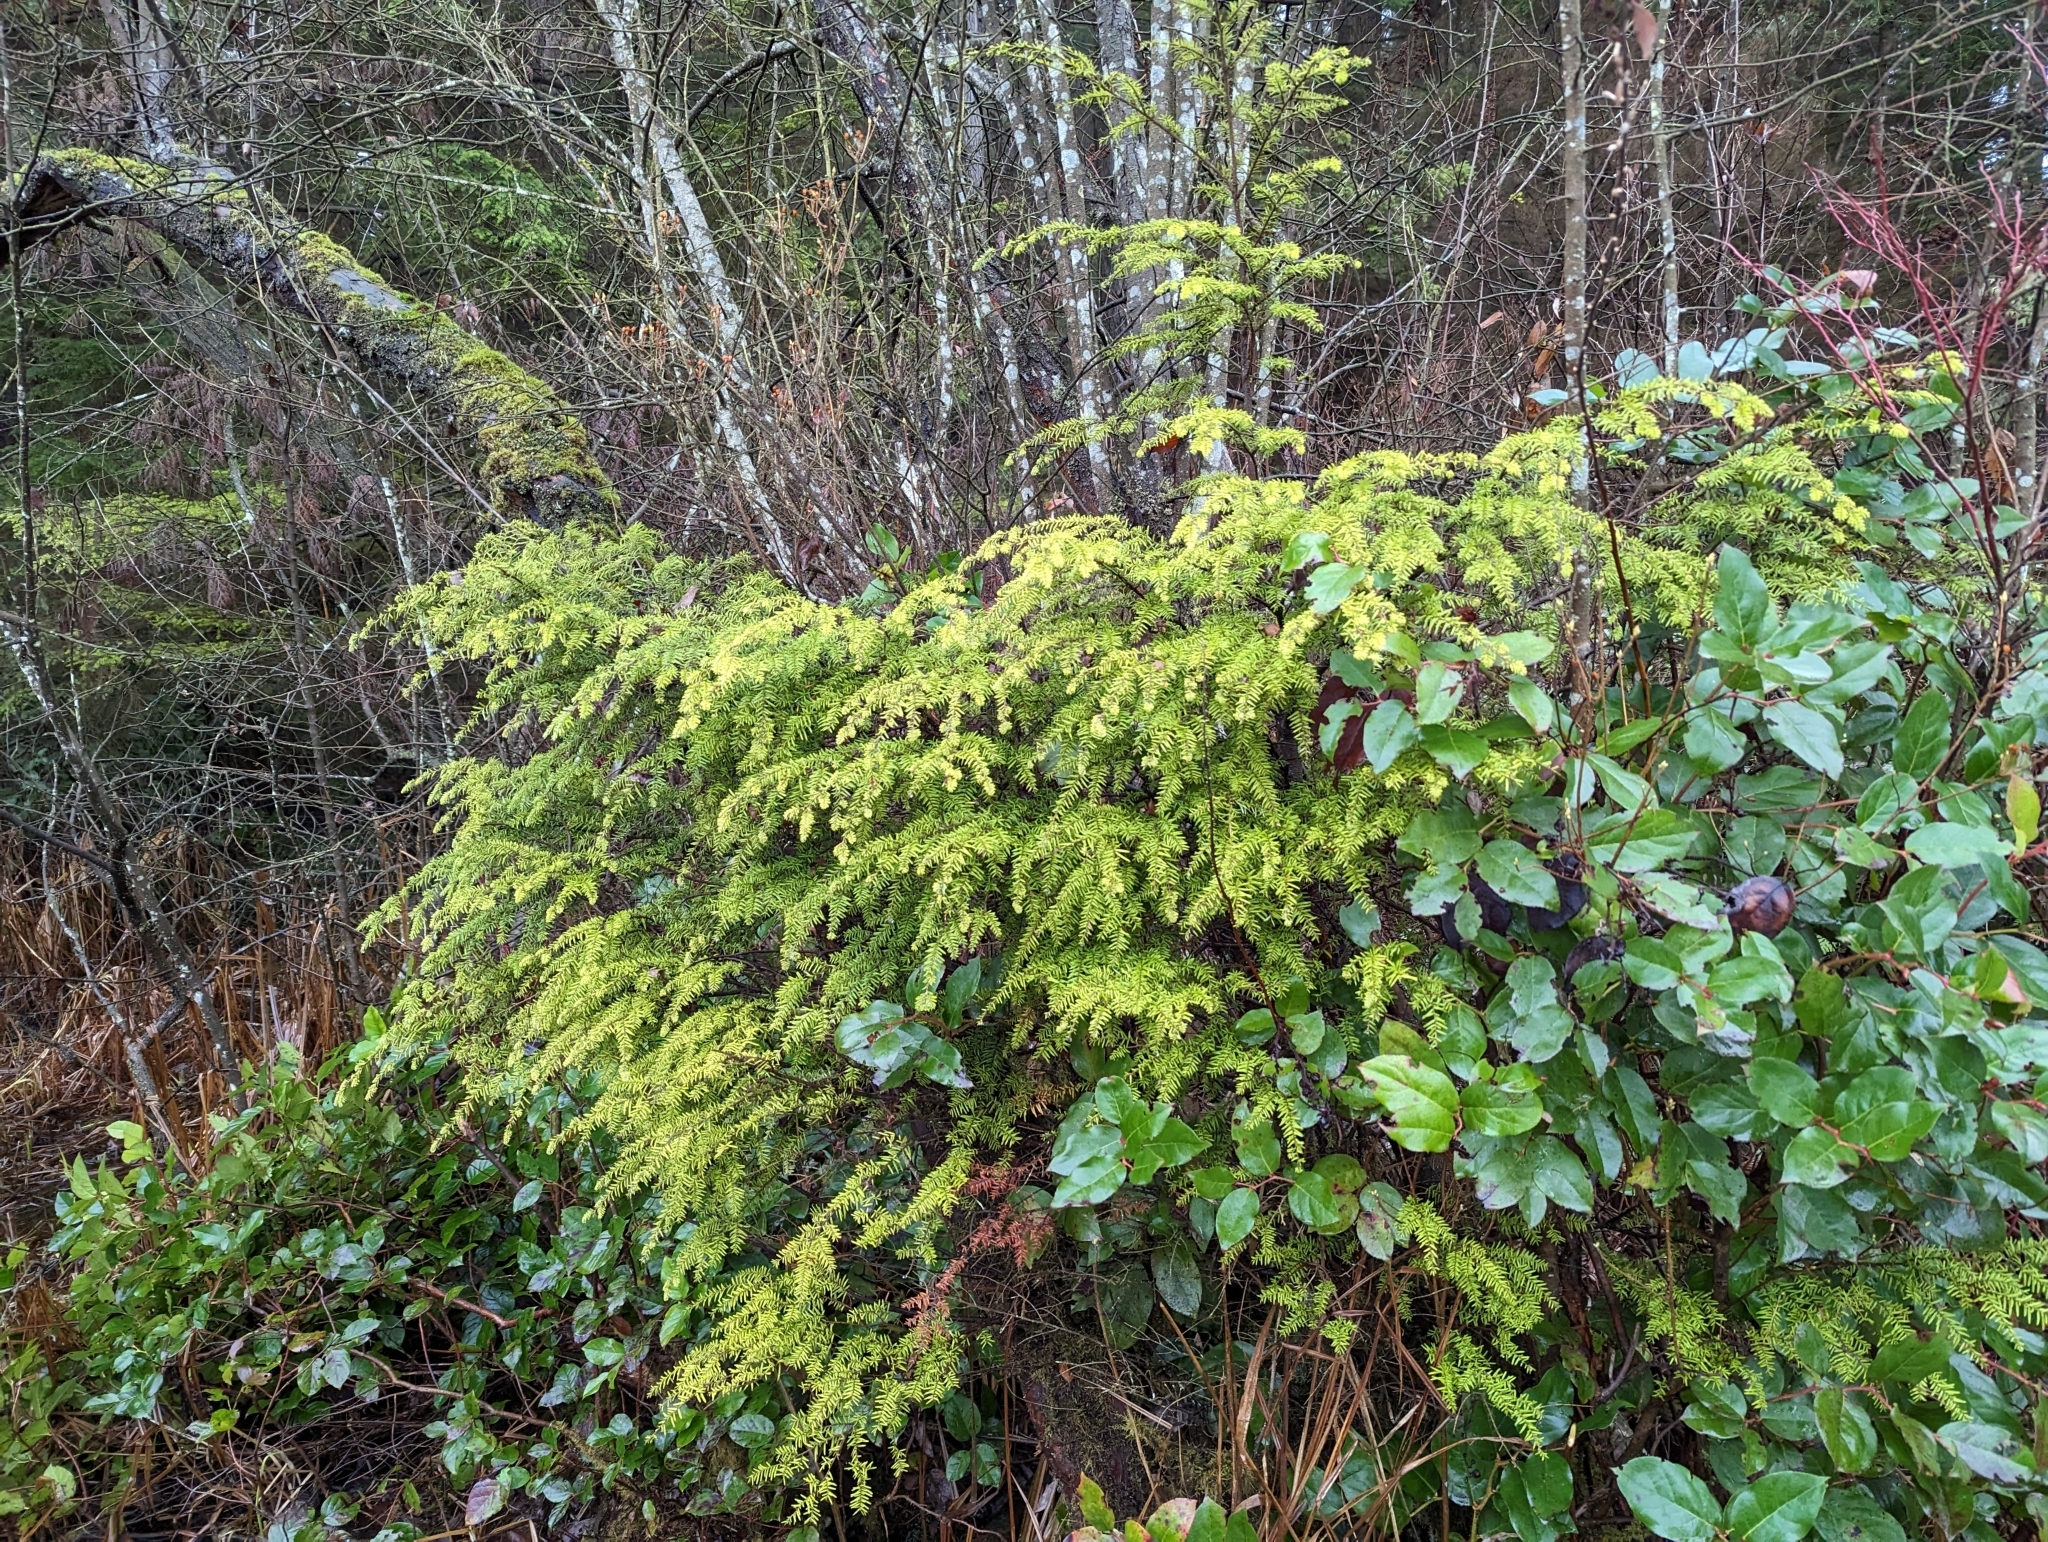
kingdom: Plantae
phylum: Tracheophyta
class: Pinopsida
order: Pinales
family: Pinaceae
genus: Tsuga
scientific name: Tsuga heterophylla
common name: Western hemlock
